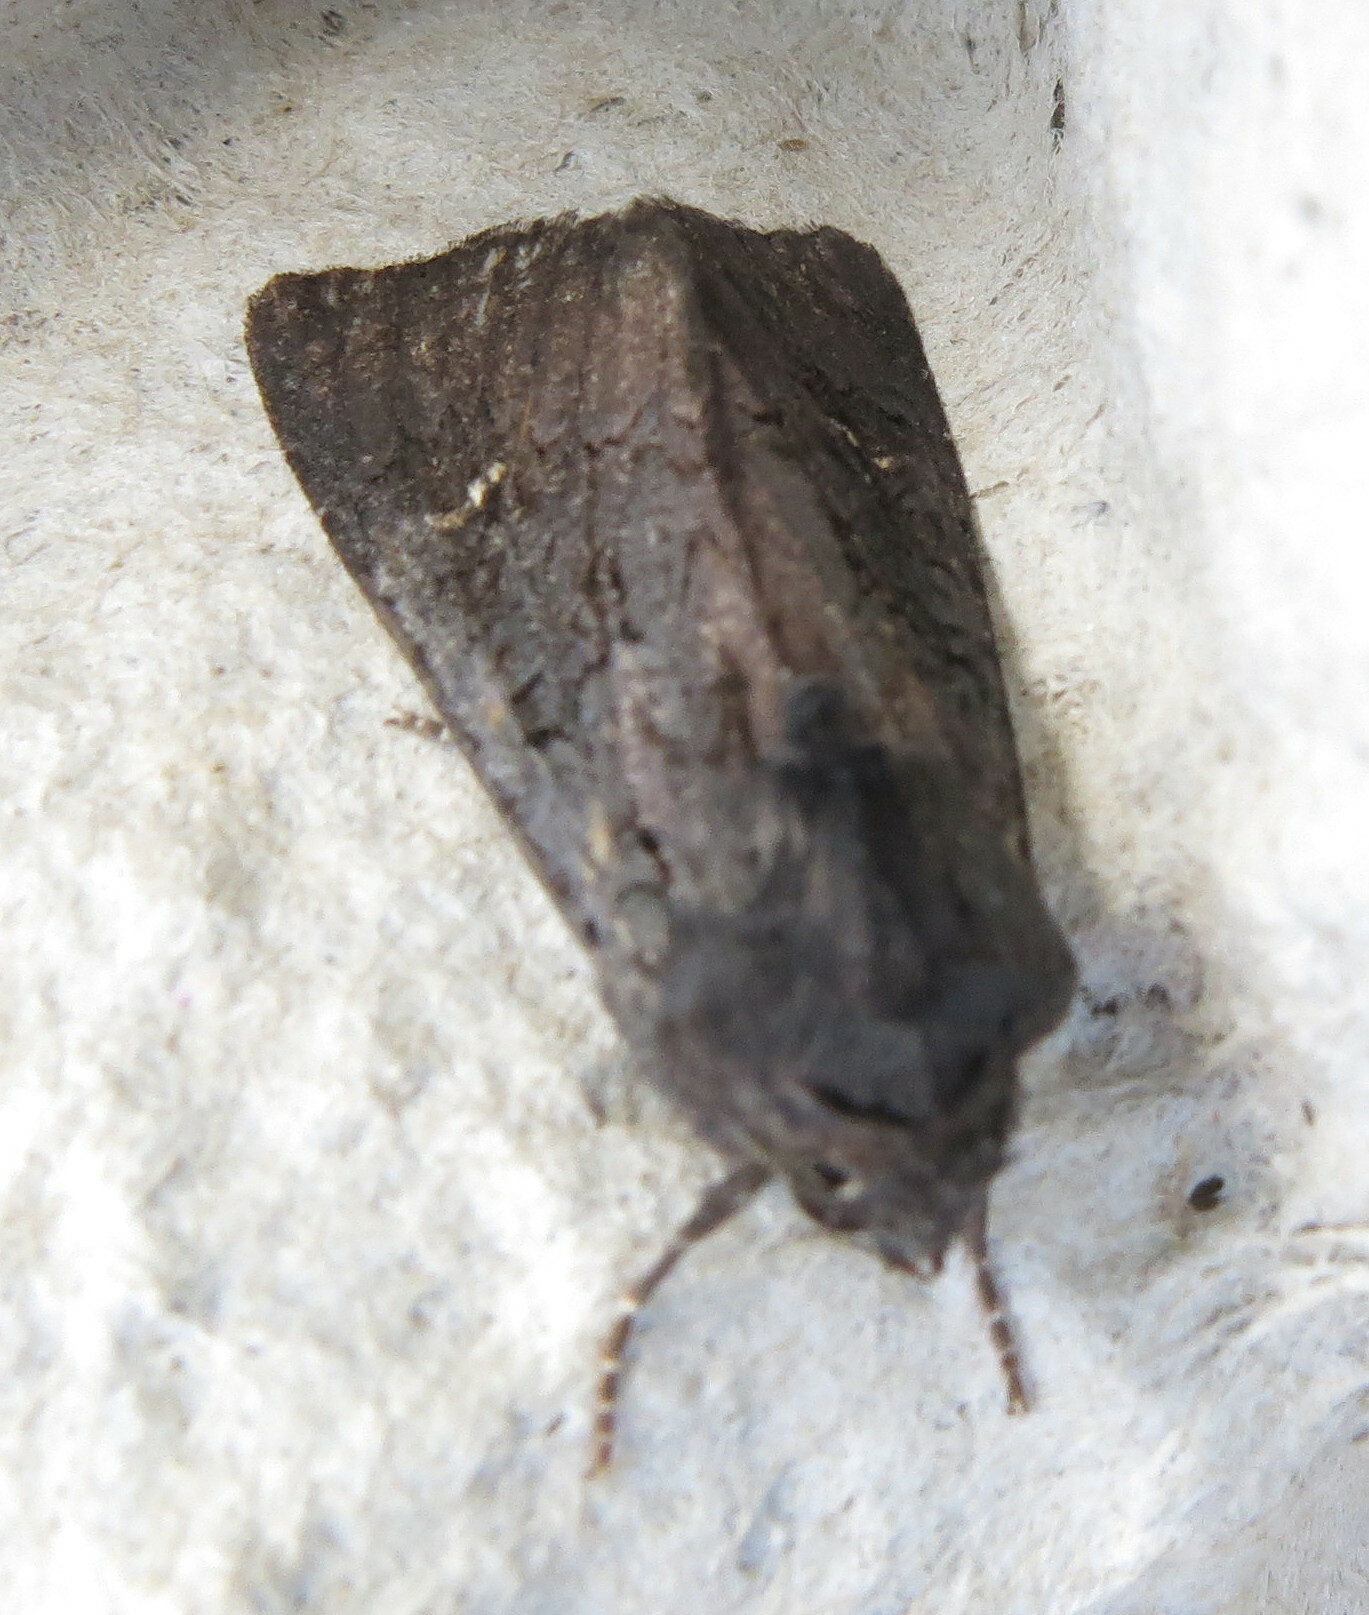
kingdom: Animalia
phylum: Arthropoda
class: Insecta
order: Lepidoptera
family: Noctuidae
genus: Aporophyla
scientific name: Aporophyla nigra
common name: Black rustic
